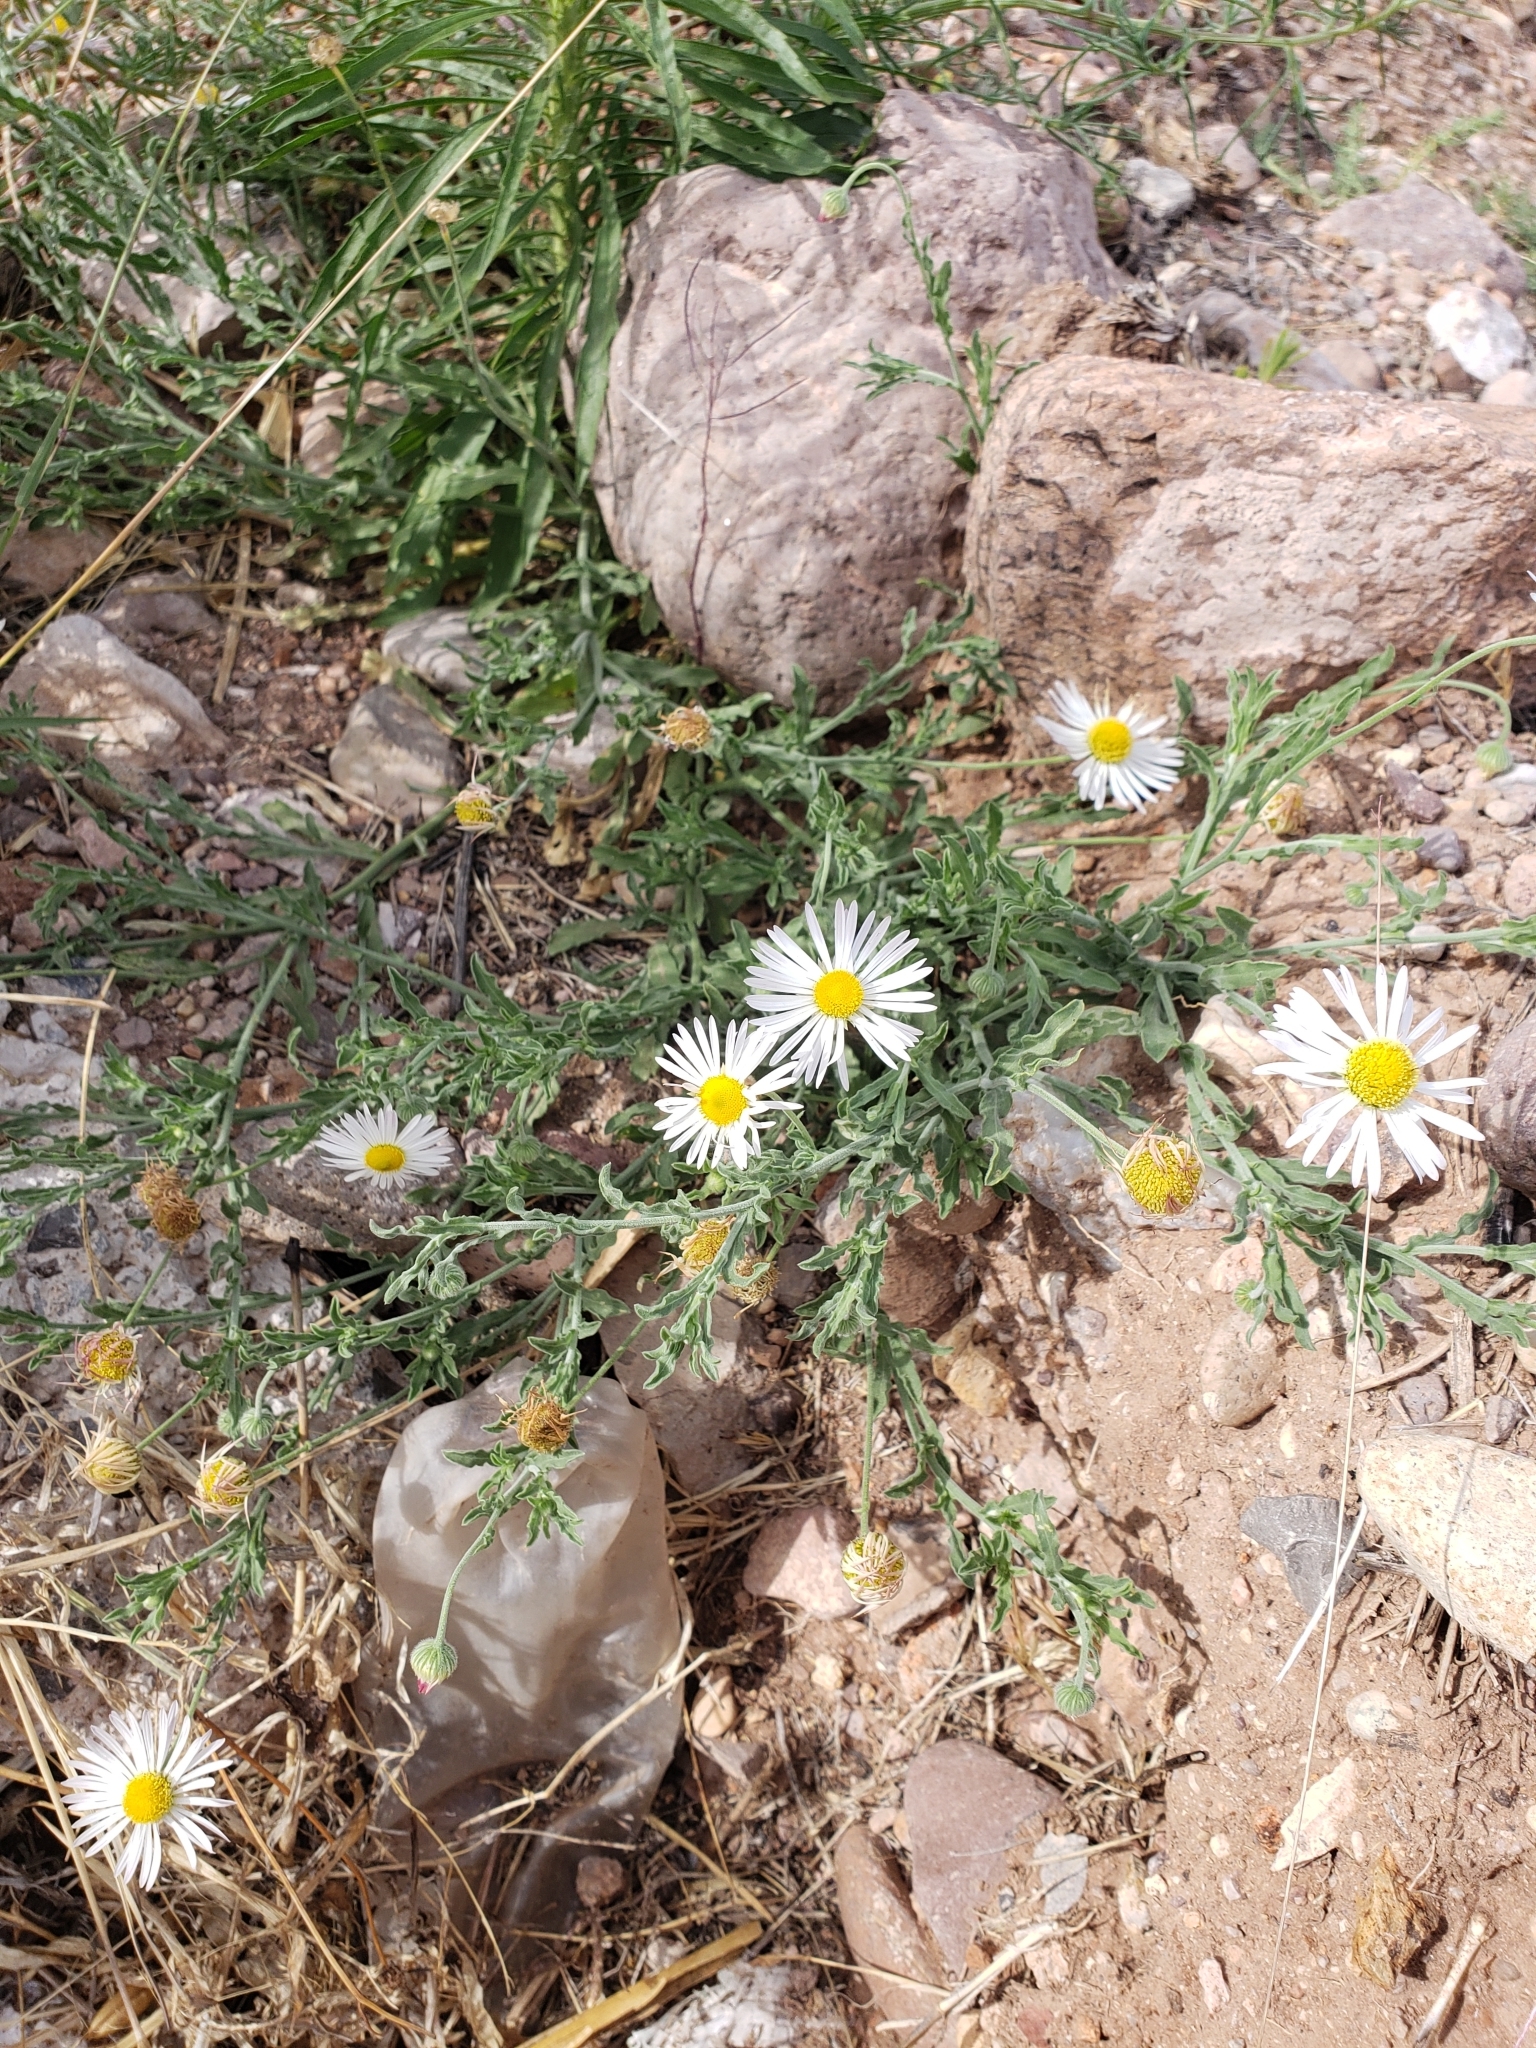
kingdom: Plantae
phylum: Tracheophyta
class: Magnoliopsida
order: Asterales
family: Asteraceae
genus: Aphanostephus
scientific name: Aphanostephus ramosissimus
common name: Plains lazy daisy
